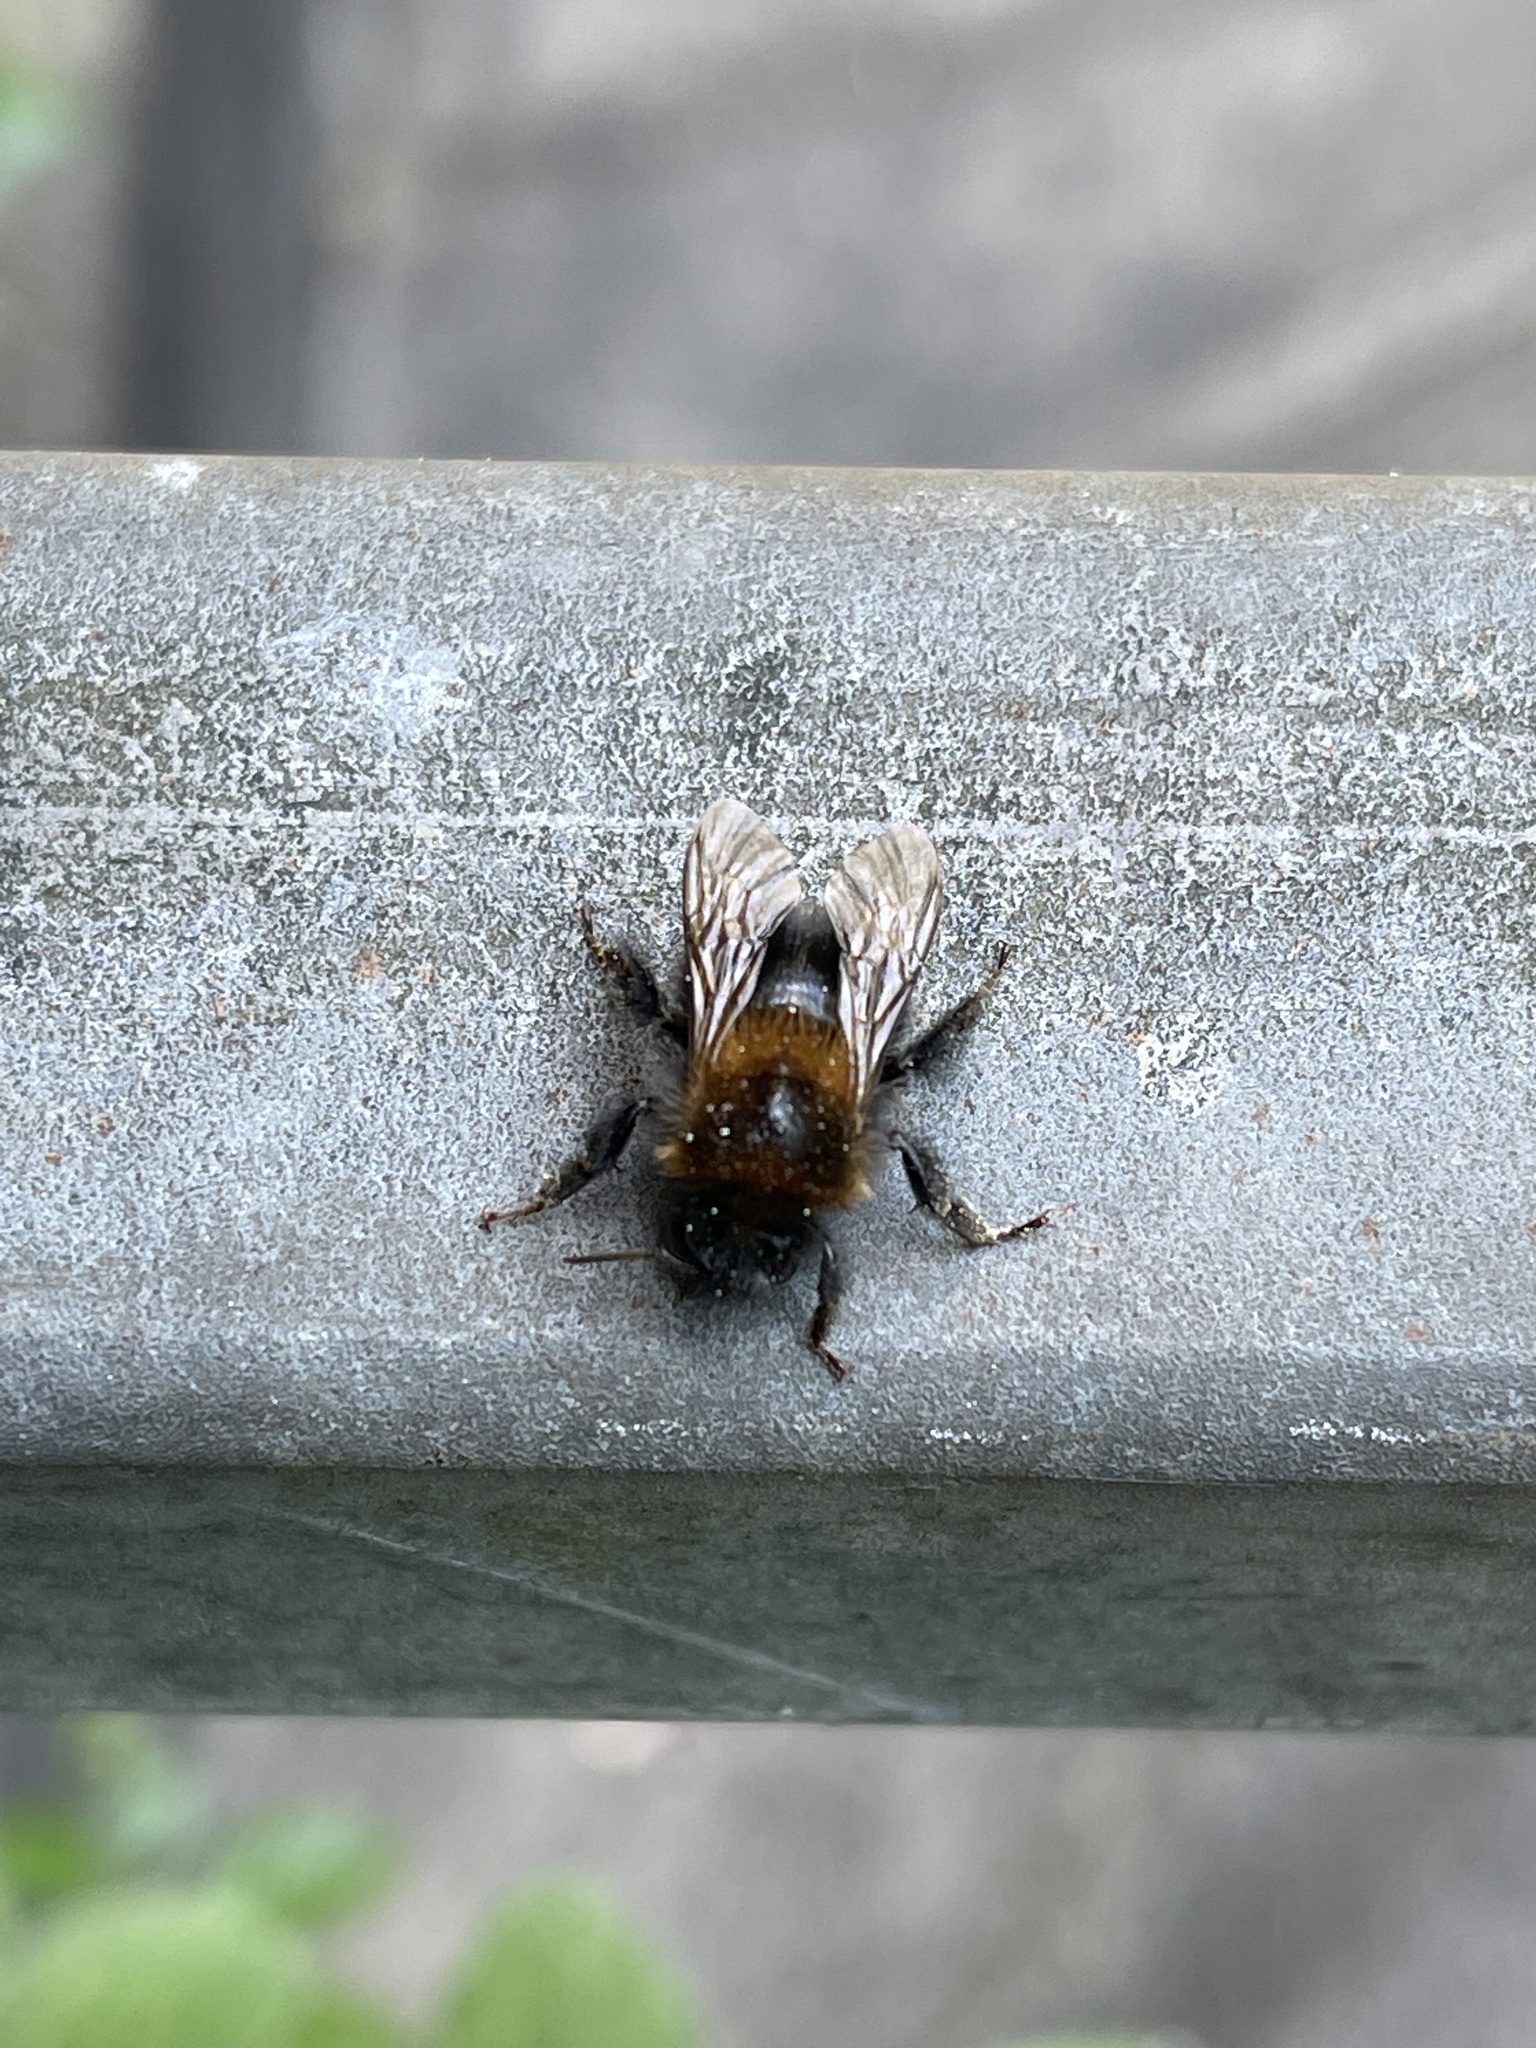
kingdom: Animalia
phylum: Arthropoda
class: Insecta
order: Hymenoptera
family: Apidae
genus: Bombus
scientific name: Bombus hypnorum
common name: New garden bumblebee
